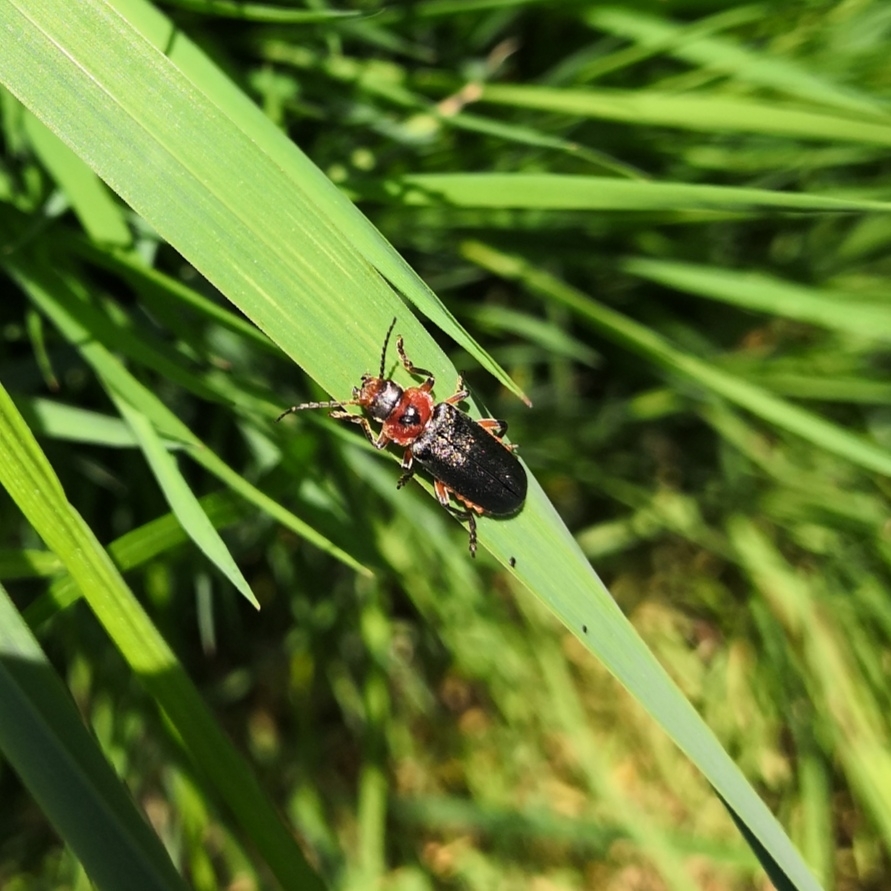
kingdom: Animalia
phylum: Arthropoda
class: Insecta
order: Coleoptera
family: Cantharidae
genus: Cantharis
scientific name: Cantharis rustica
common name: Soldier beetle
